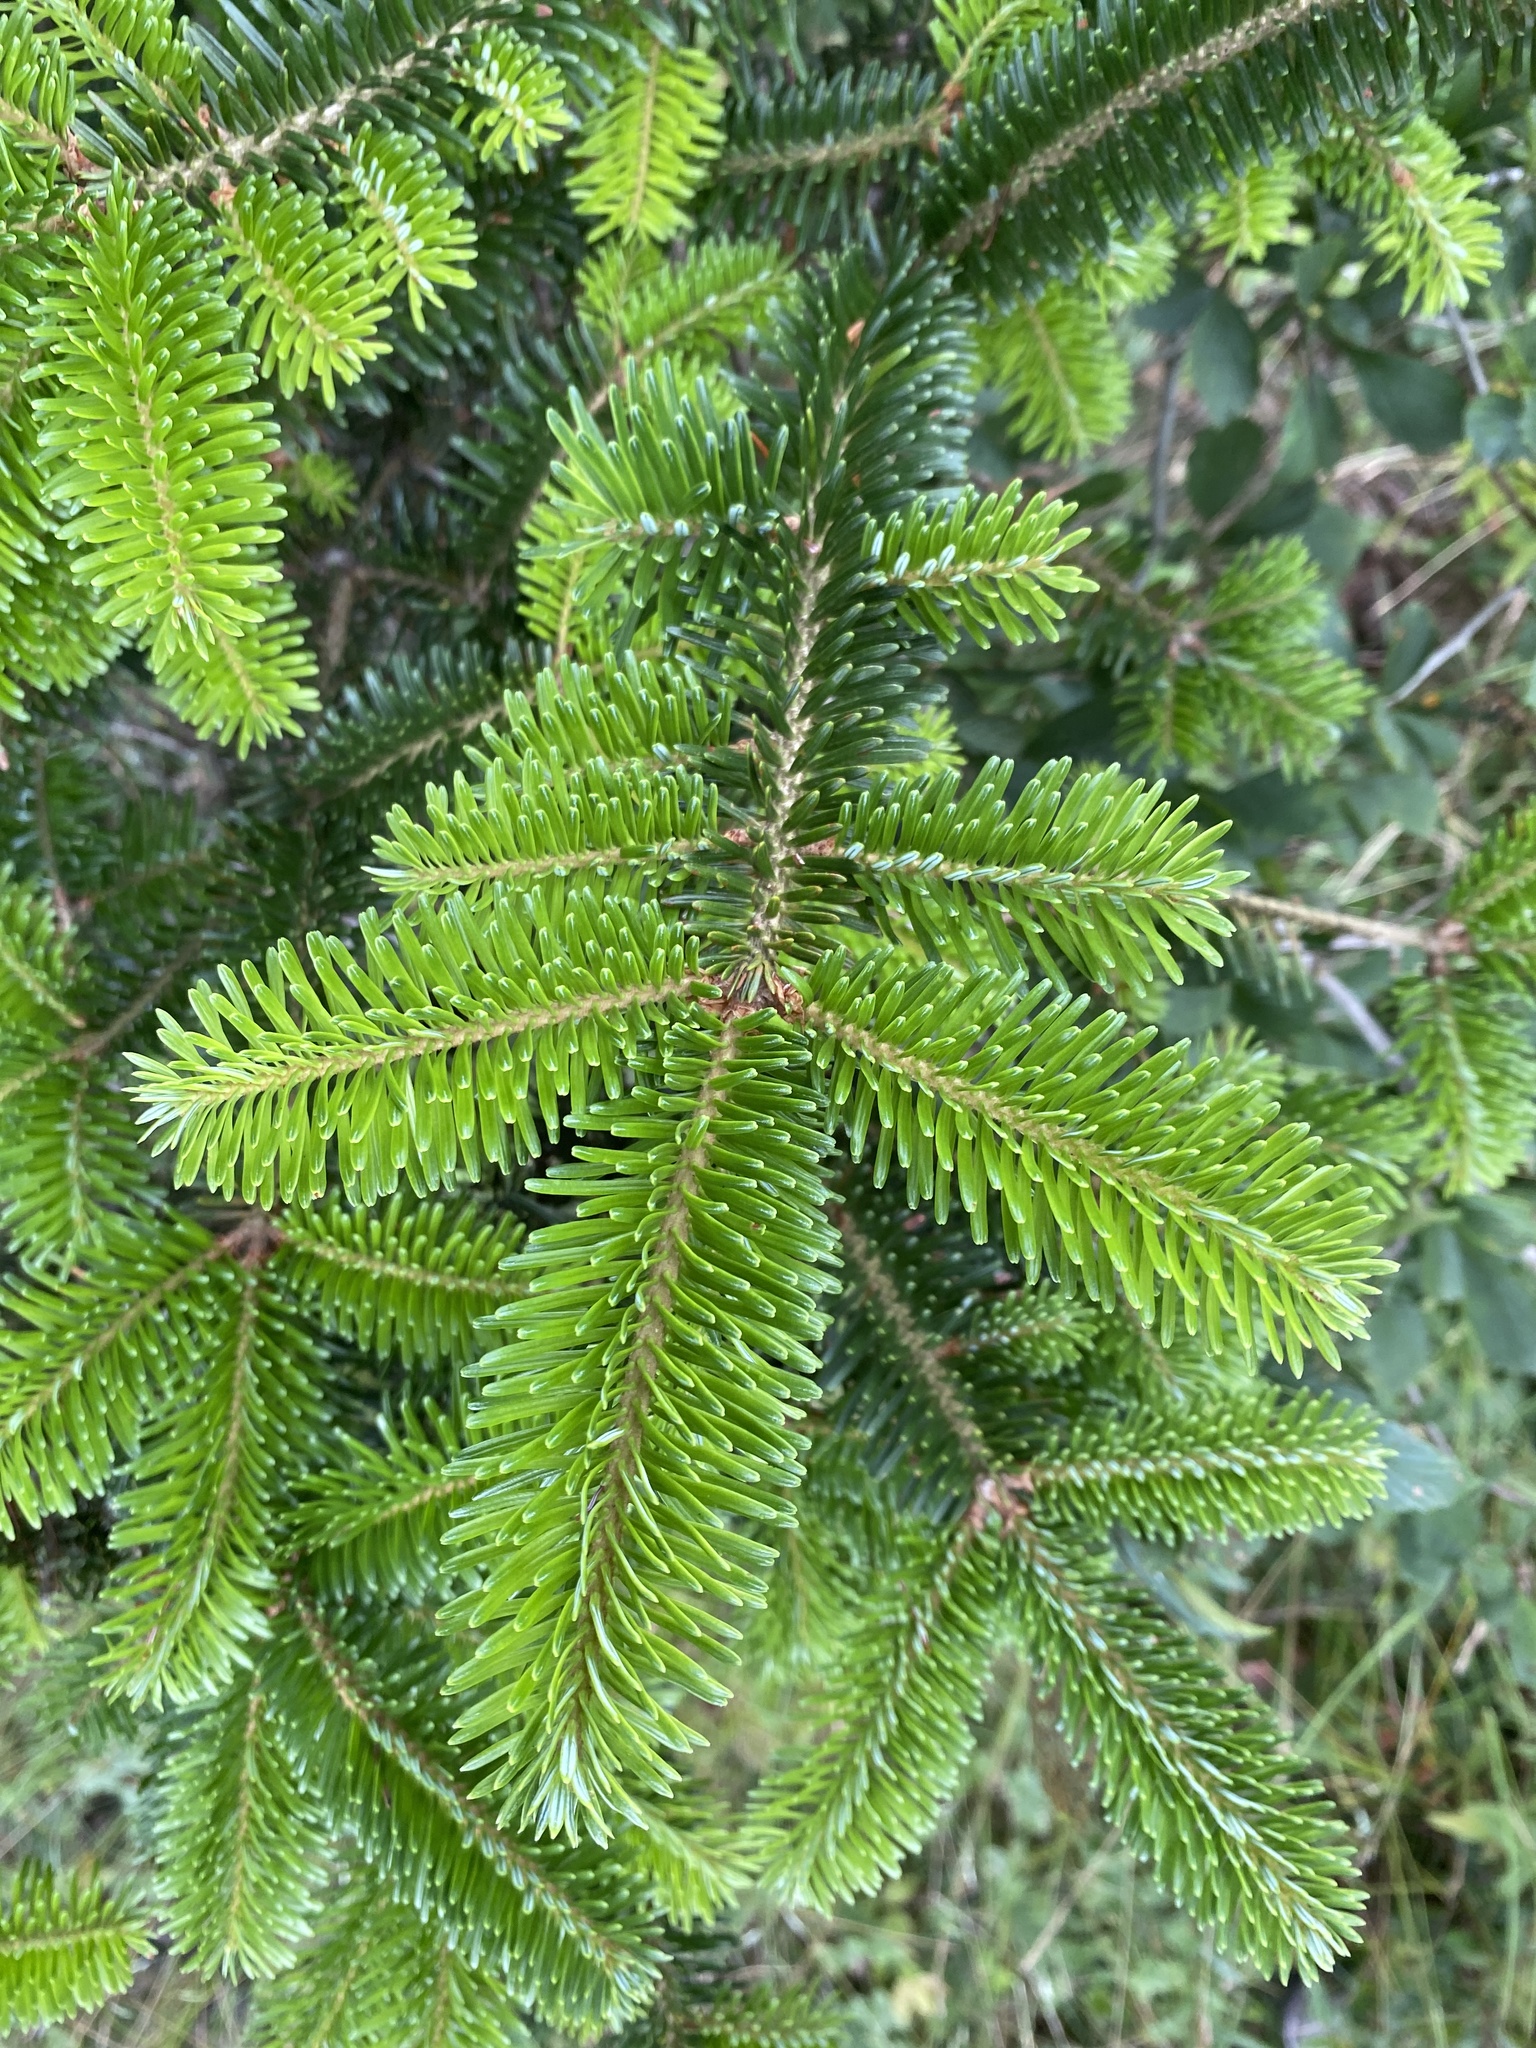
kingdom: Plantae
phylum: Tracheophyta
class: Pinopsida
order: Pinales
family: Pinaceae
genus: Abies
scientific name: Abies fraseri
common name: Fraser fir
